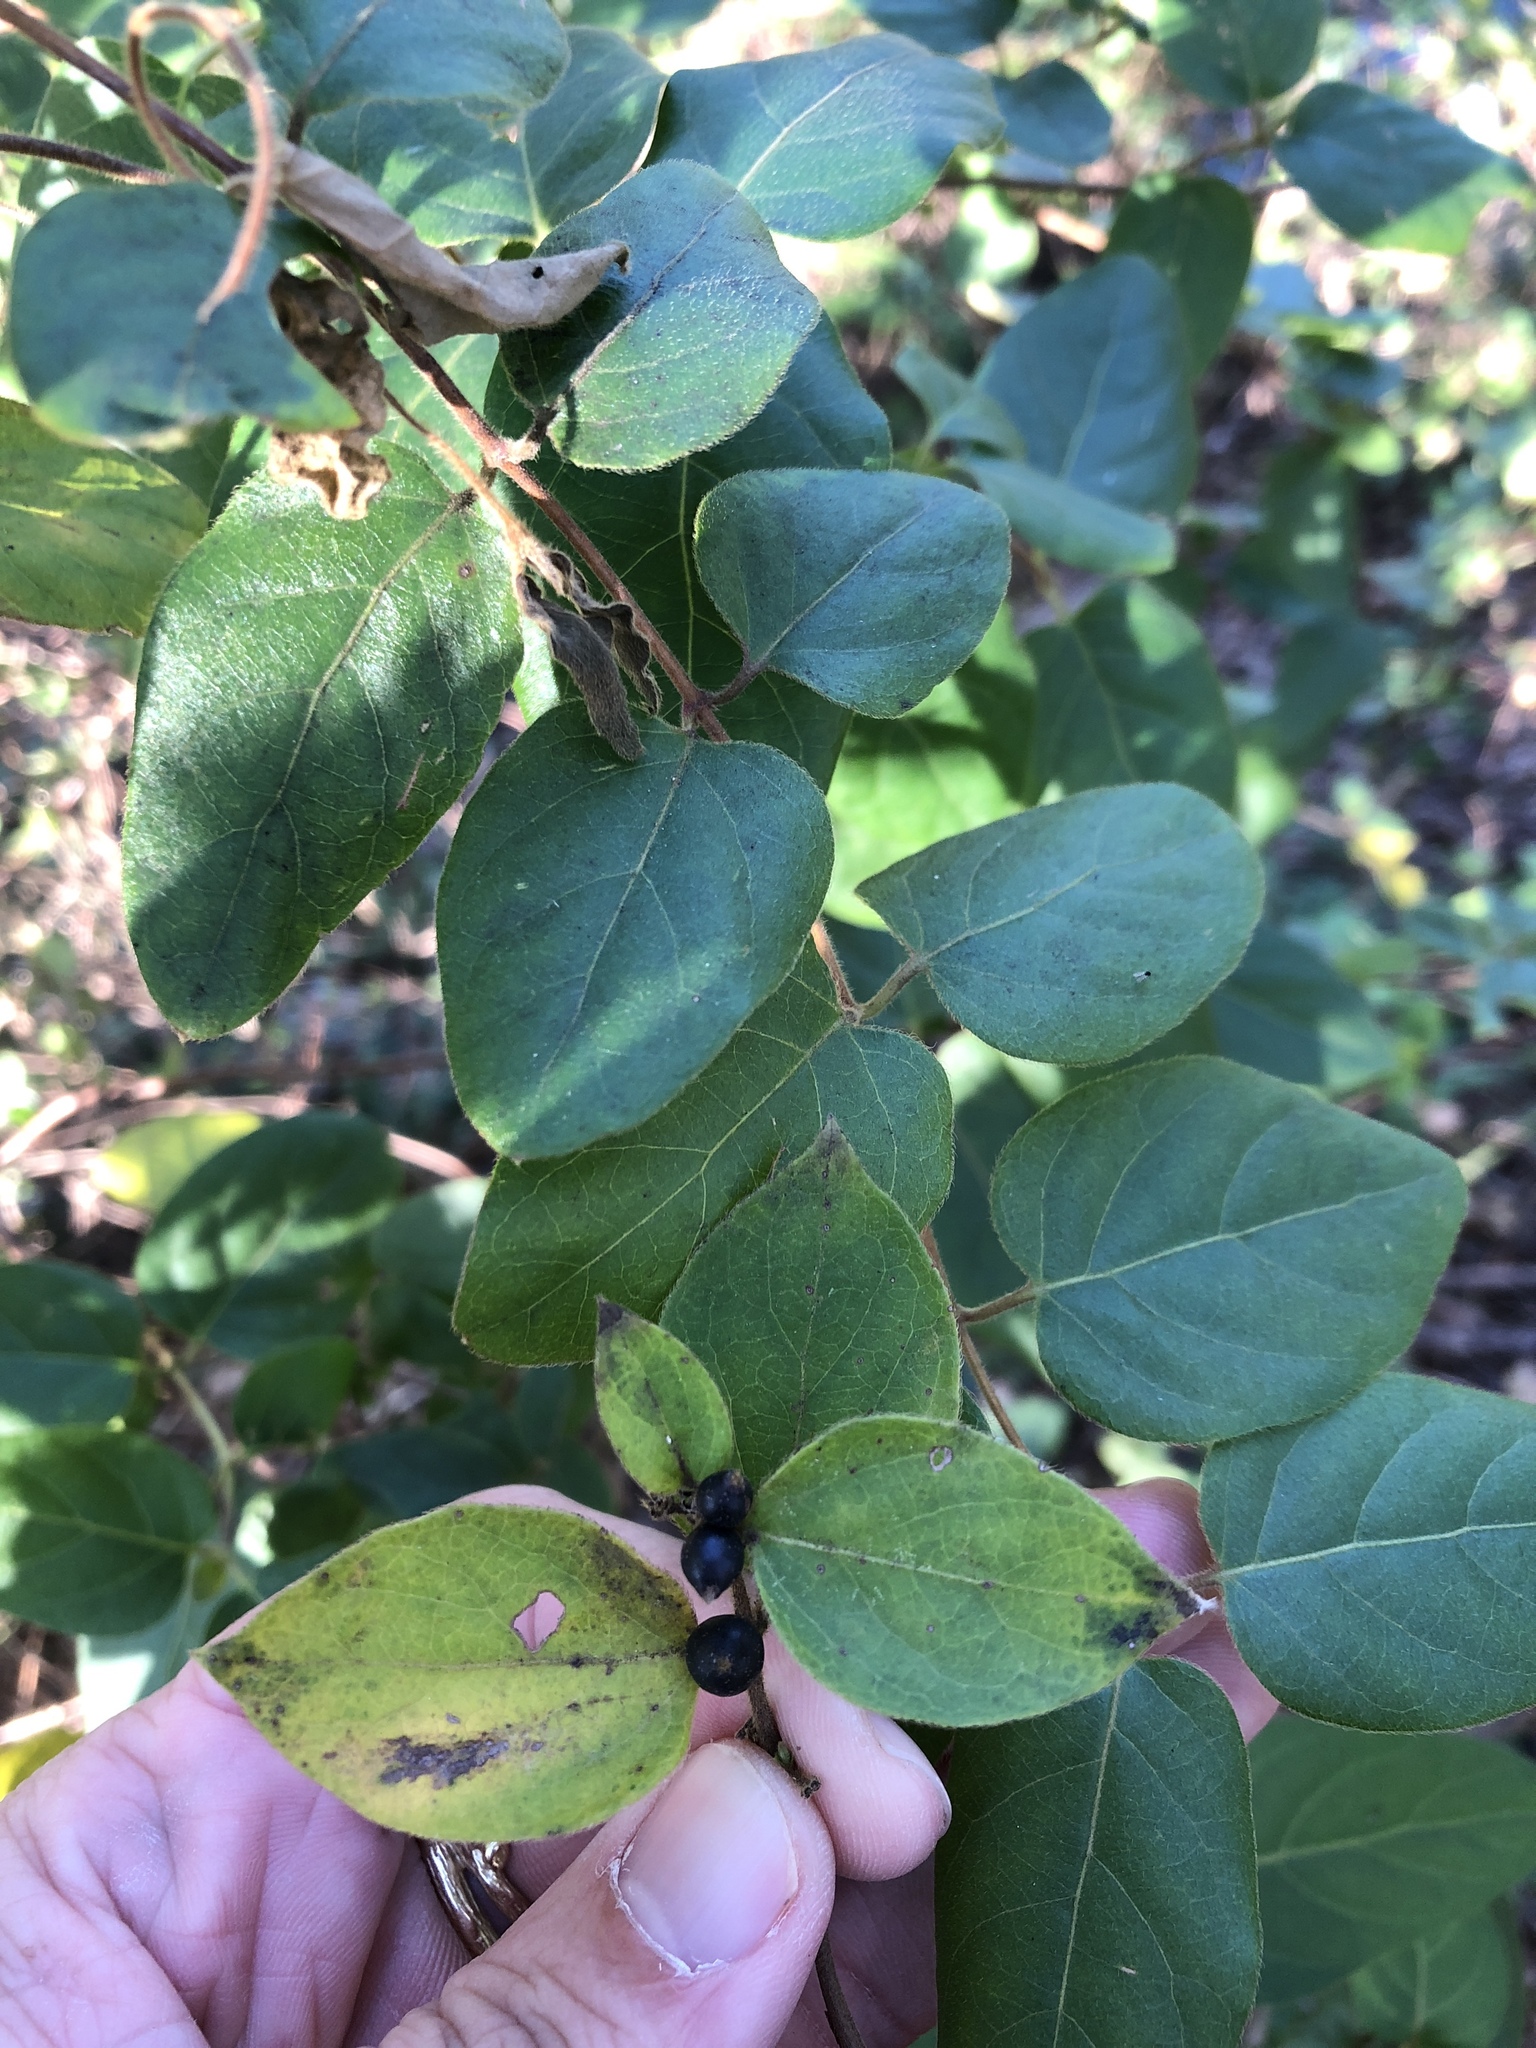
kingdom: Plantae
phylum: Tracheophyta
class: Magnoliopsida
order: Dipsacales
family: Caprifoliaceae
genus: Lonicera
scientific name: Lonicera japonica
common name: Japanese honeysuckle
